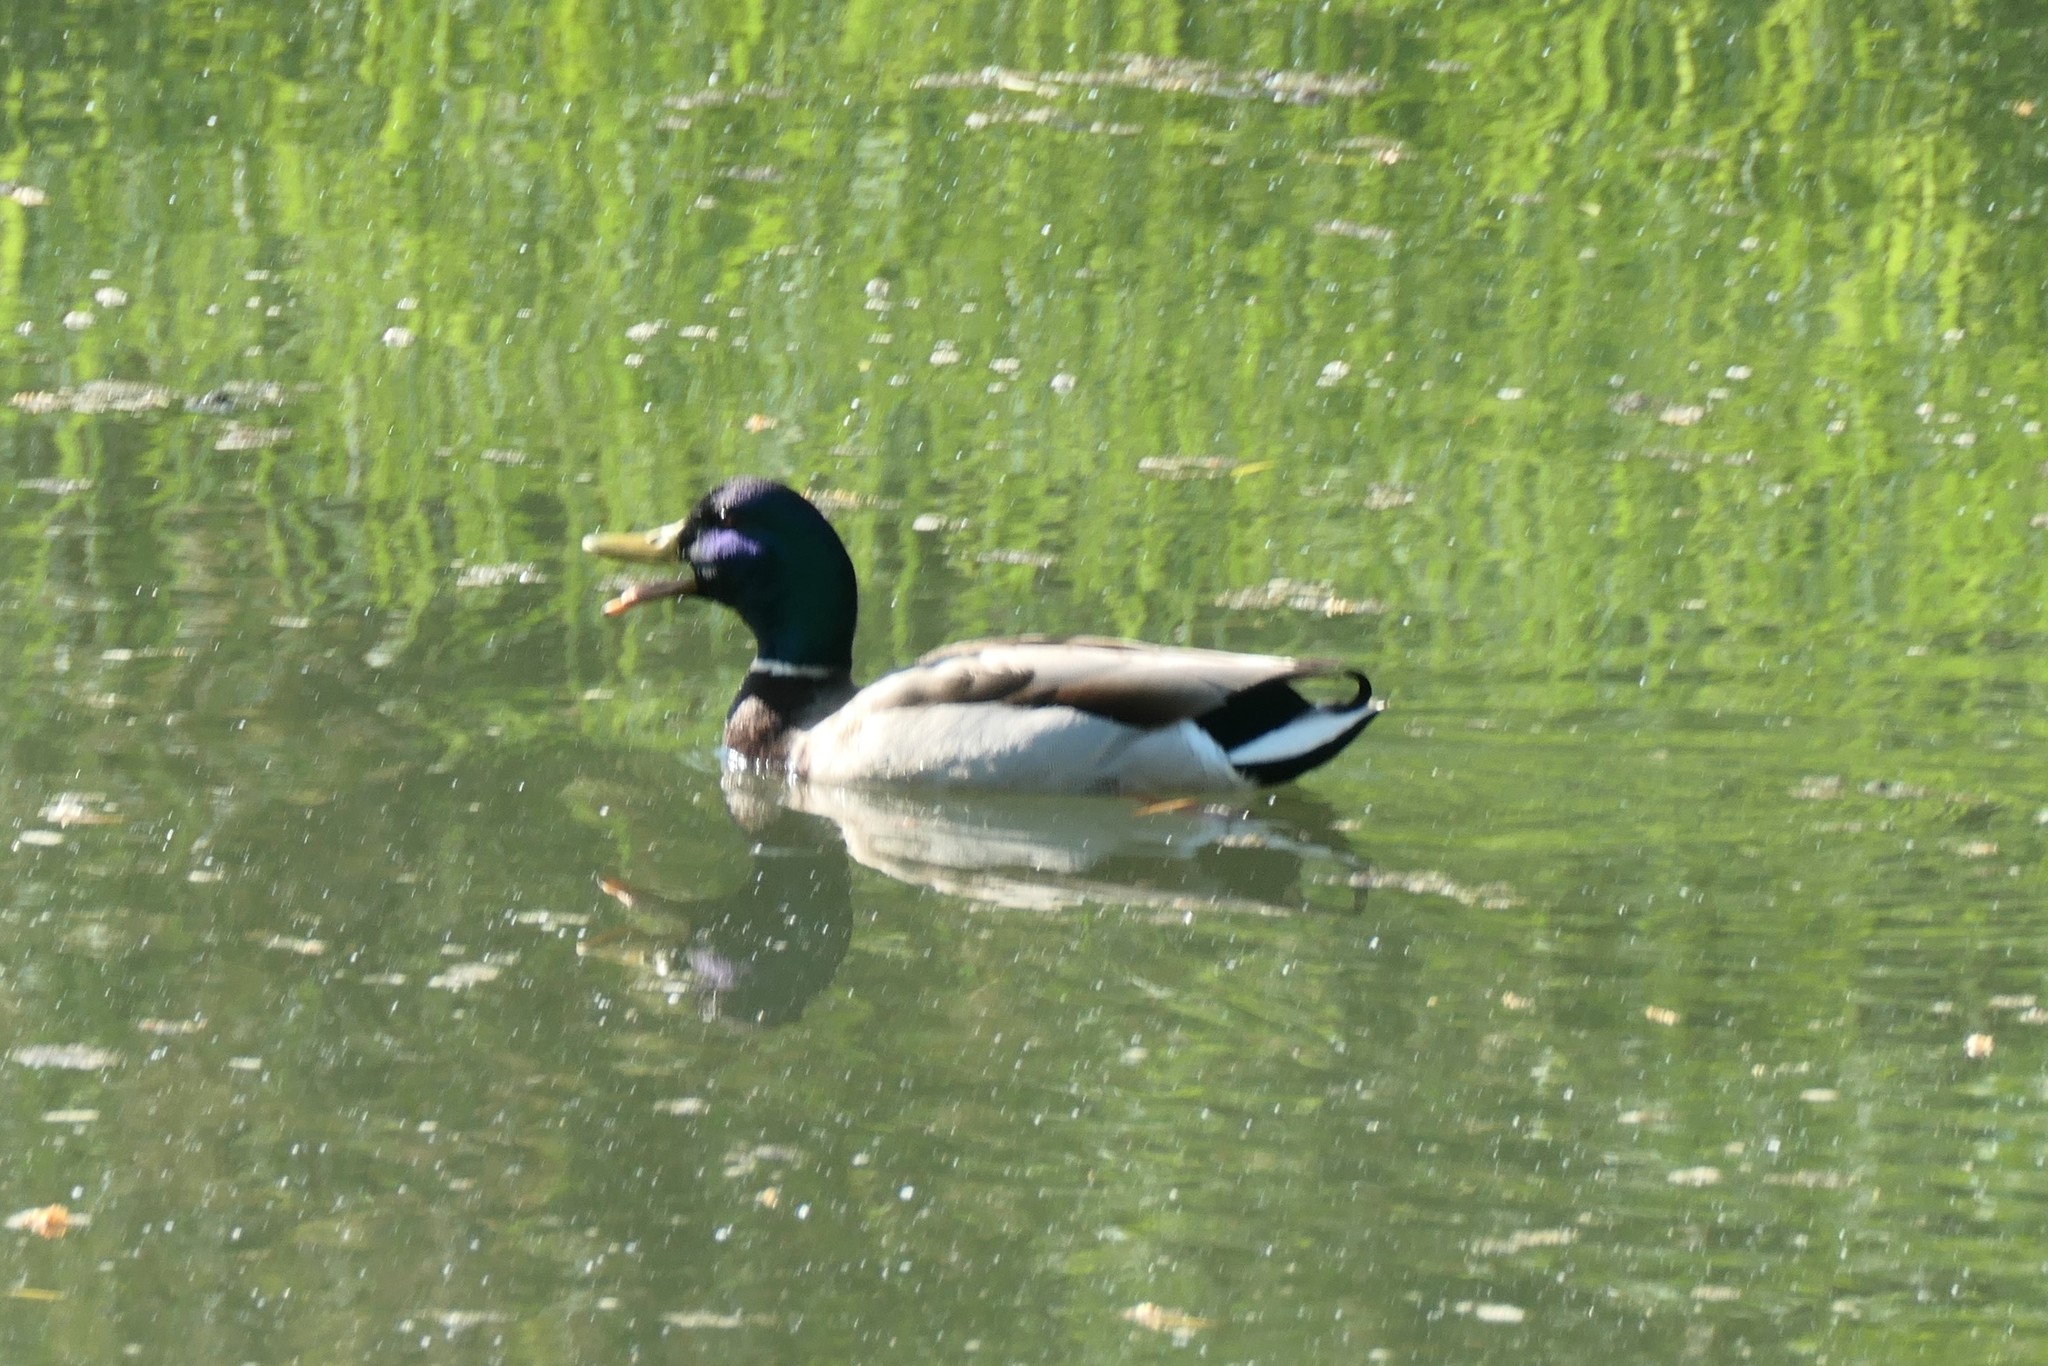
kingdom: Animalia
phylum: Chordata
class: Aves
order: Anseriformes
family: Anatidae
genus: Anas
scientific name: Anas platyrhynchos
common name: Mallard
